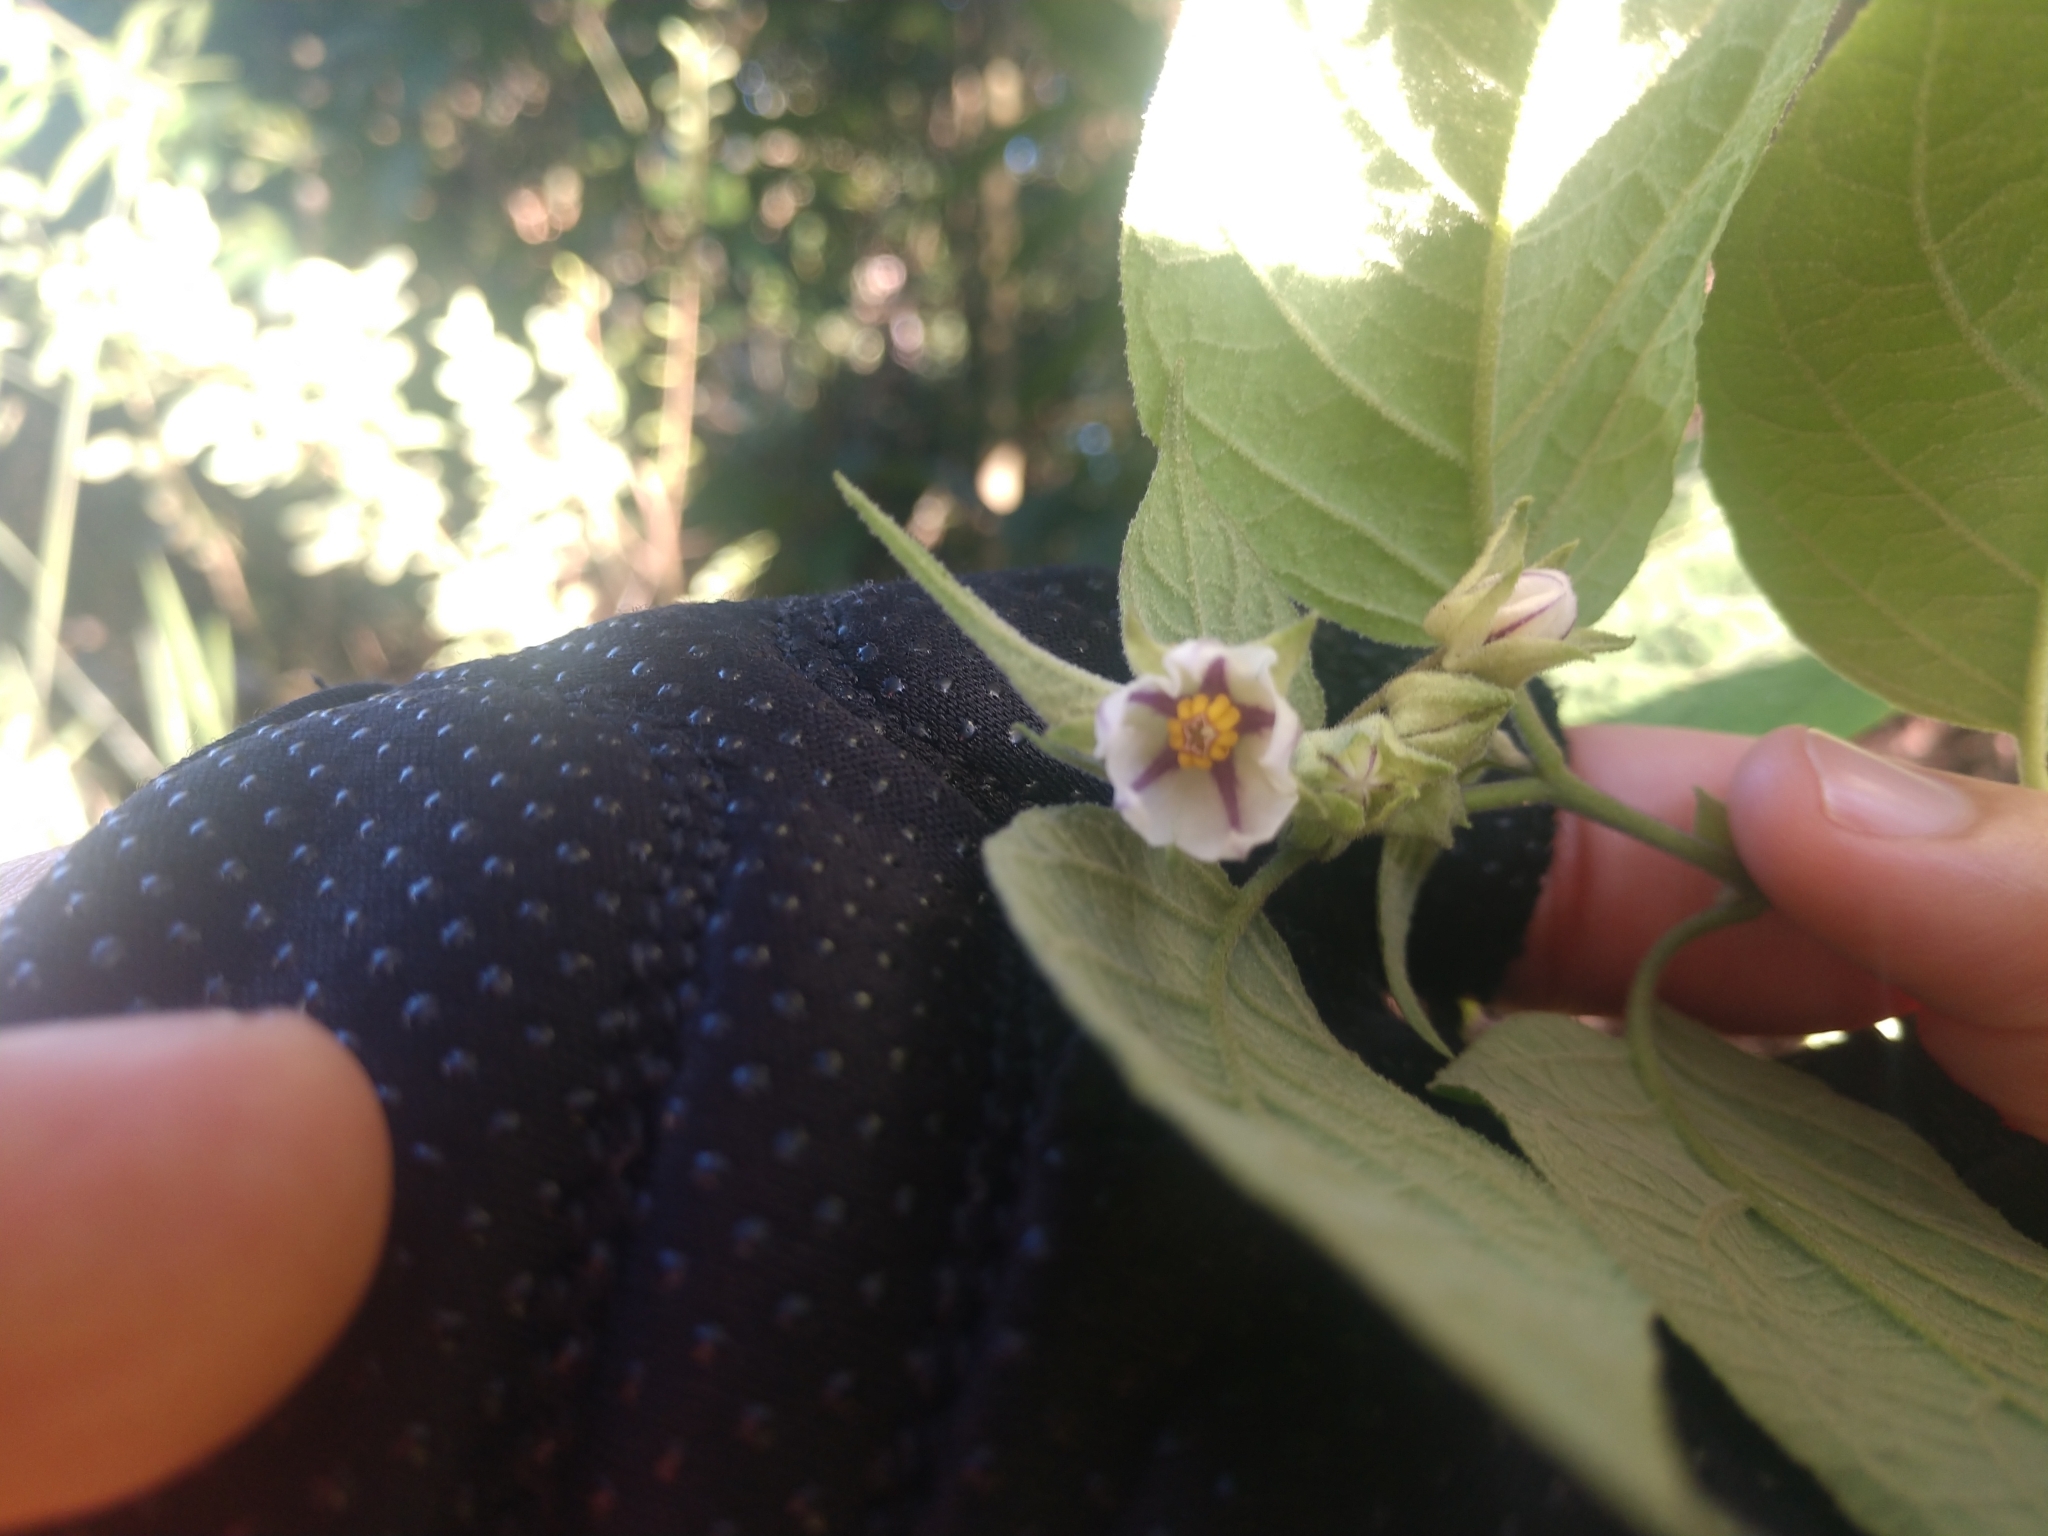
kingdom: Plantae
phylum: Tracheophyta
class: Magnoliopsida
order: Solanales
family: Solanaceae
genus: Solanum
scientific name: Solanum didymum
